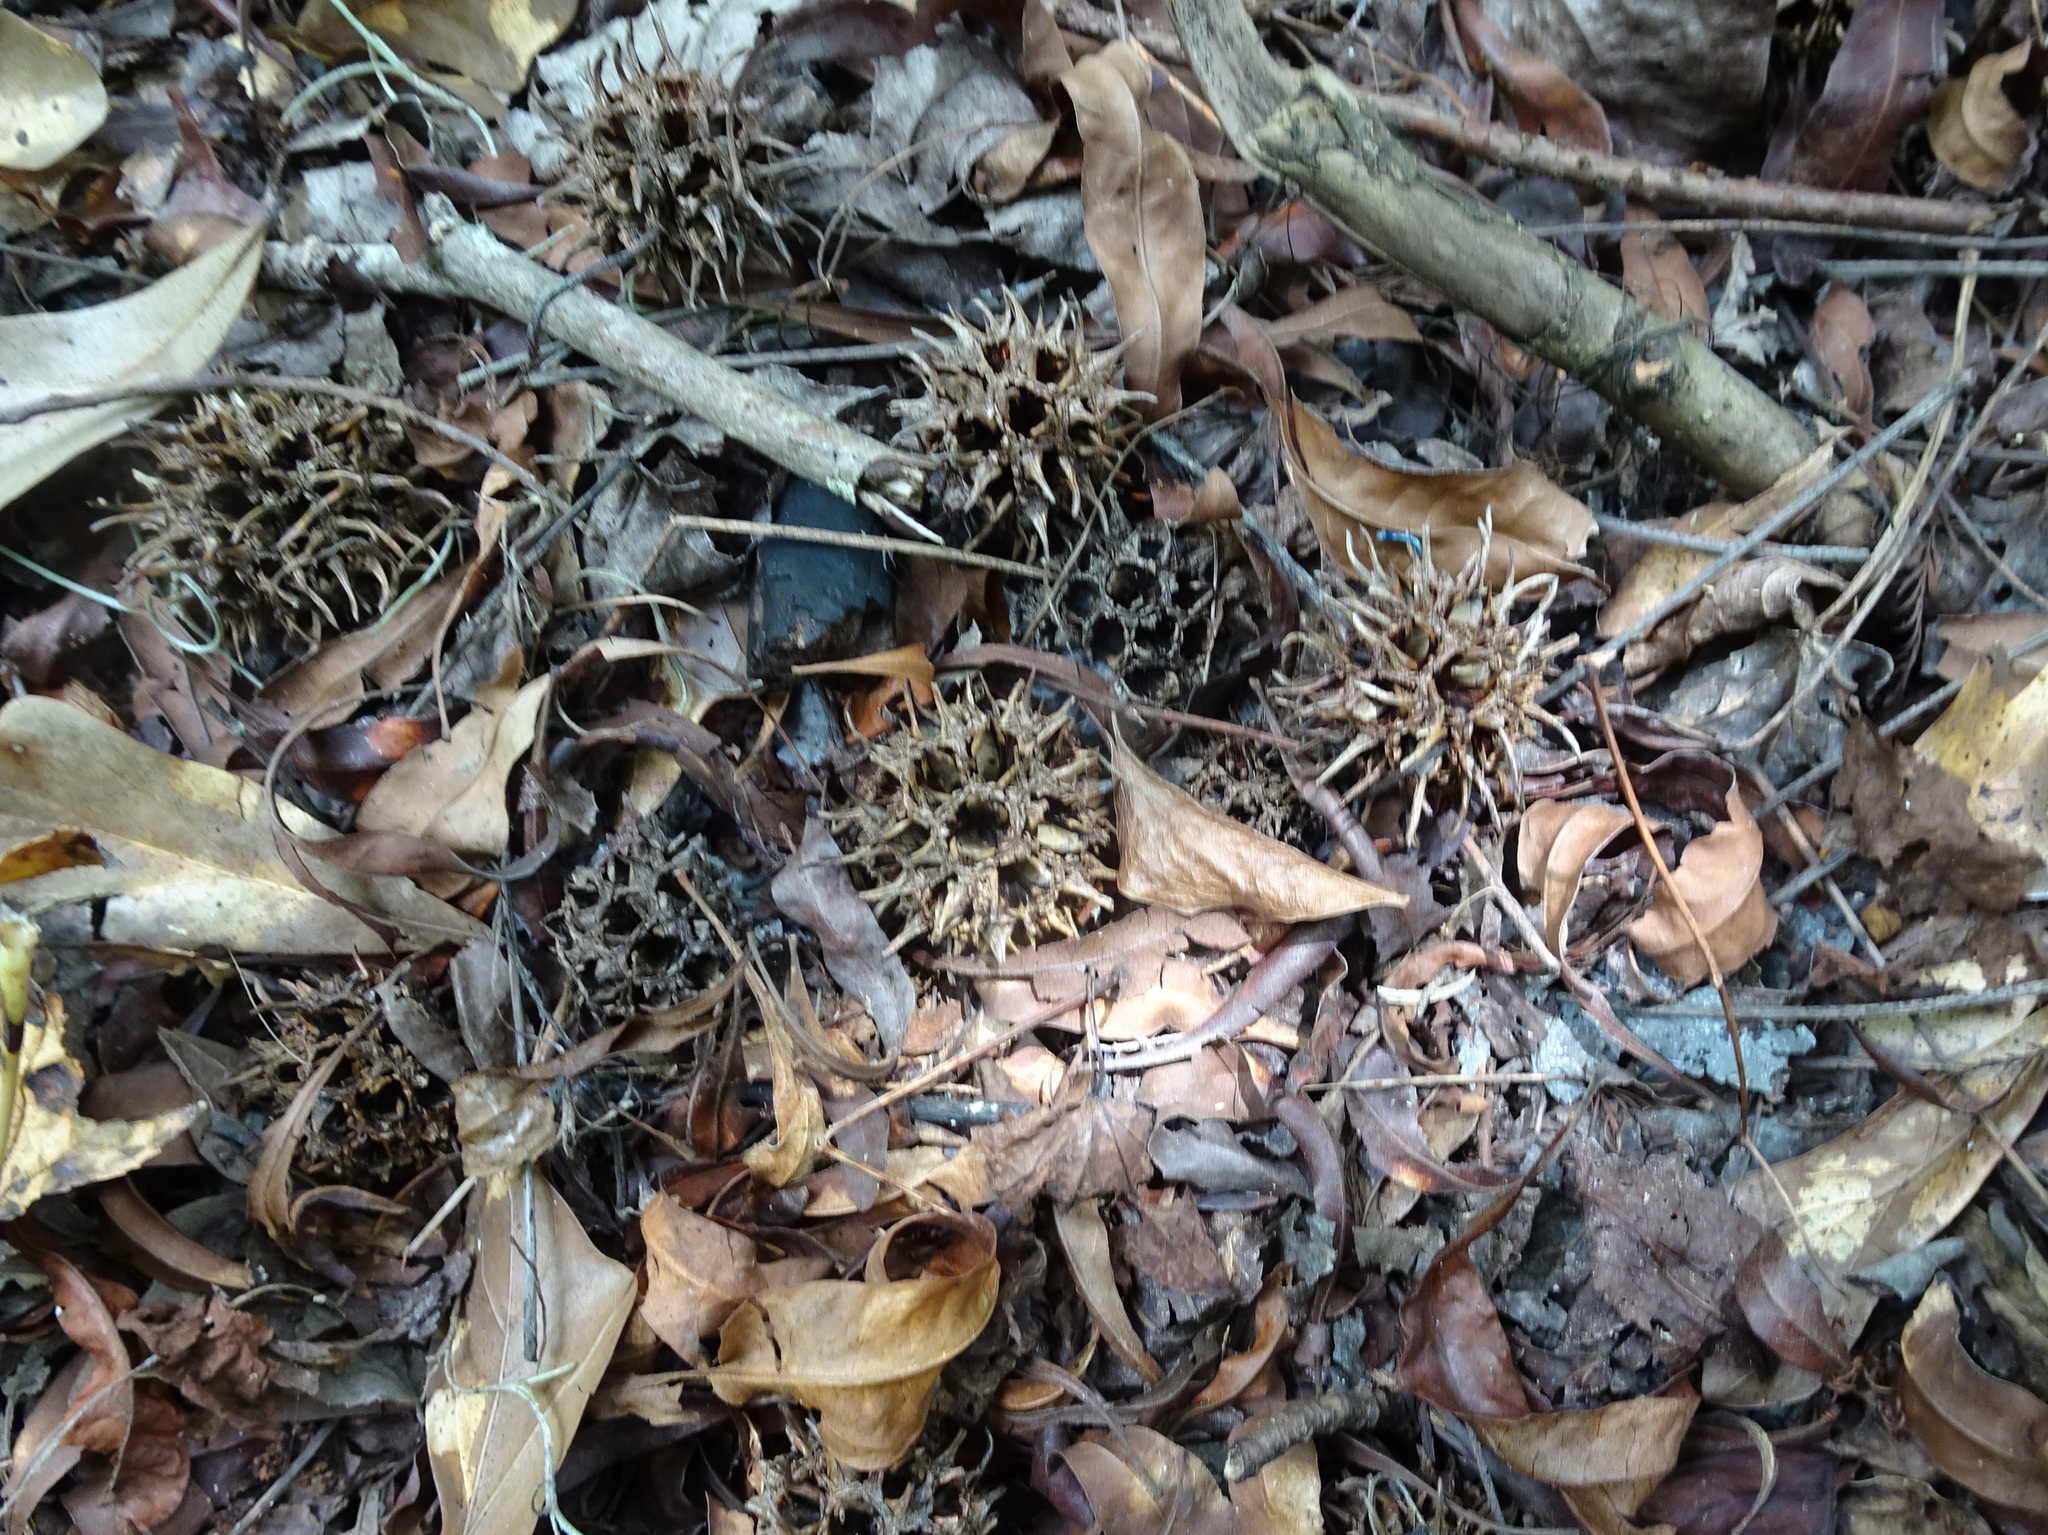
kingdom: Plantae
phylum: Tracheophyta
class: Magnoliopsida
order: Saxifragales
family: Altingiaceae
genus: Liquidambar
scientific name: Liquidambar styraciflua
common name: Sweet gum
